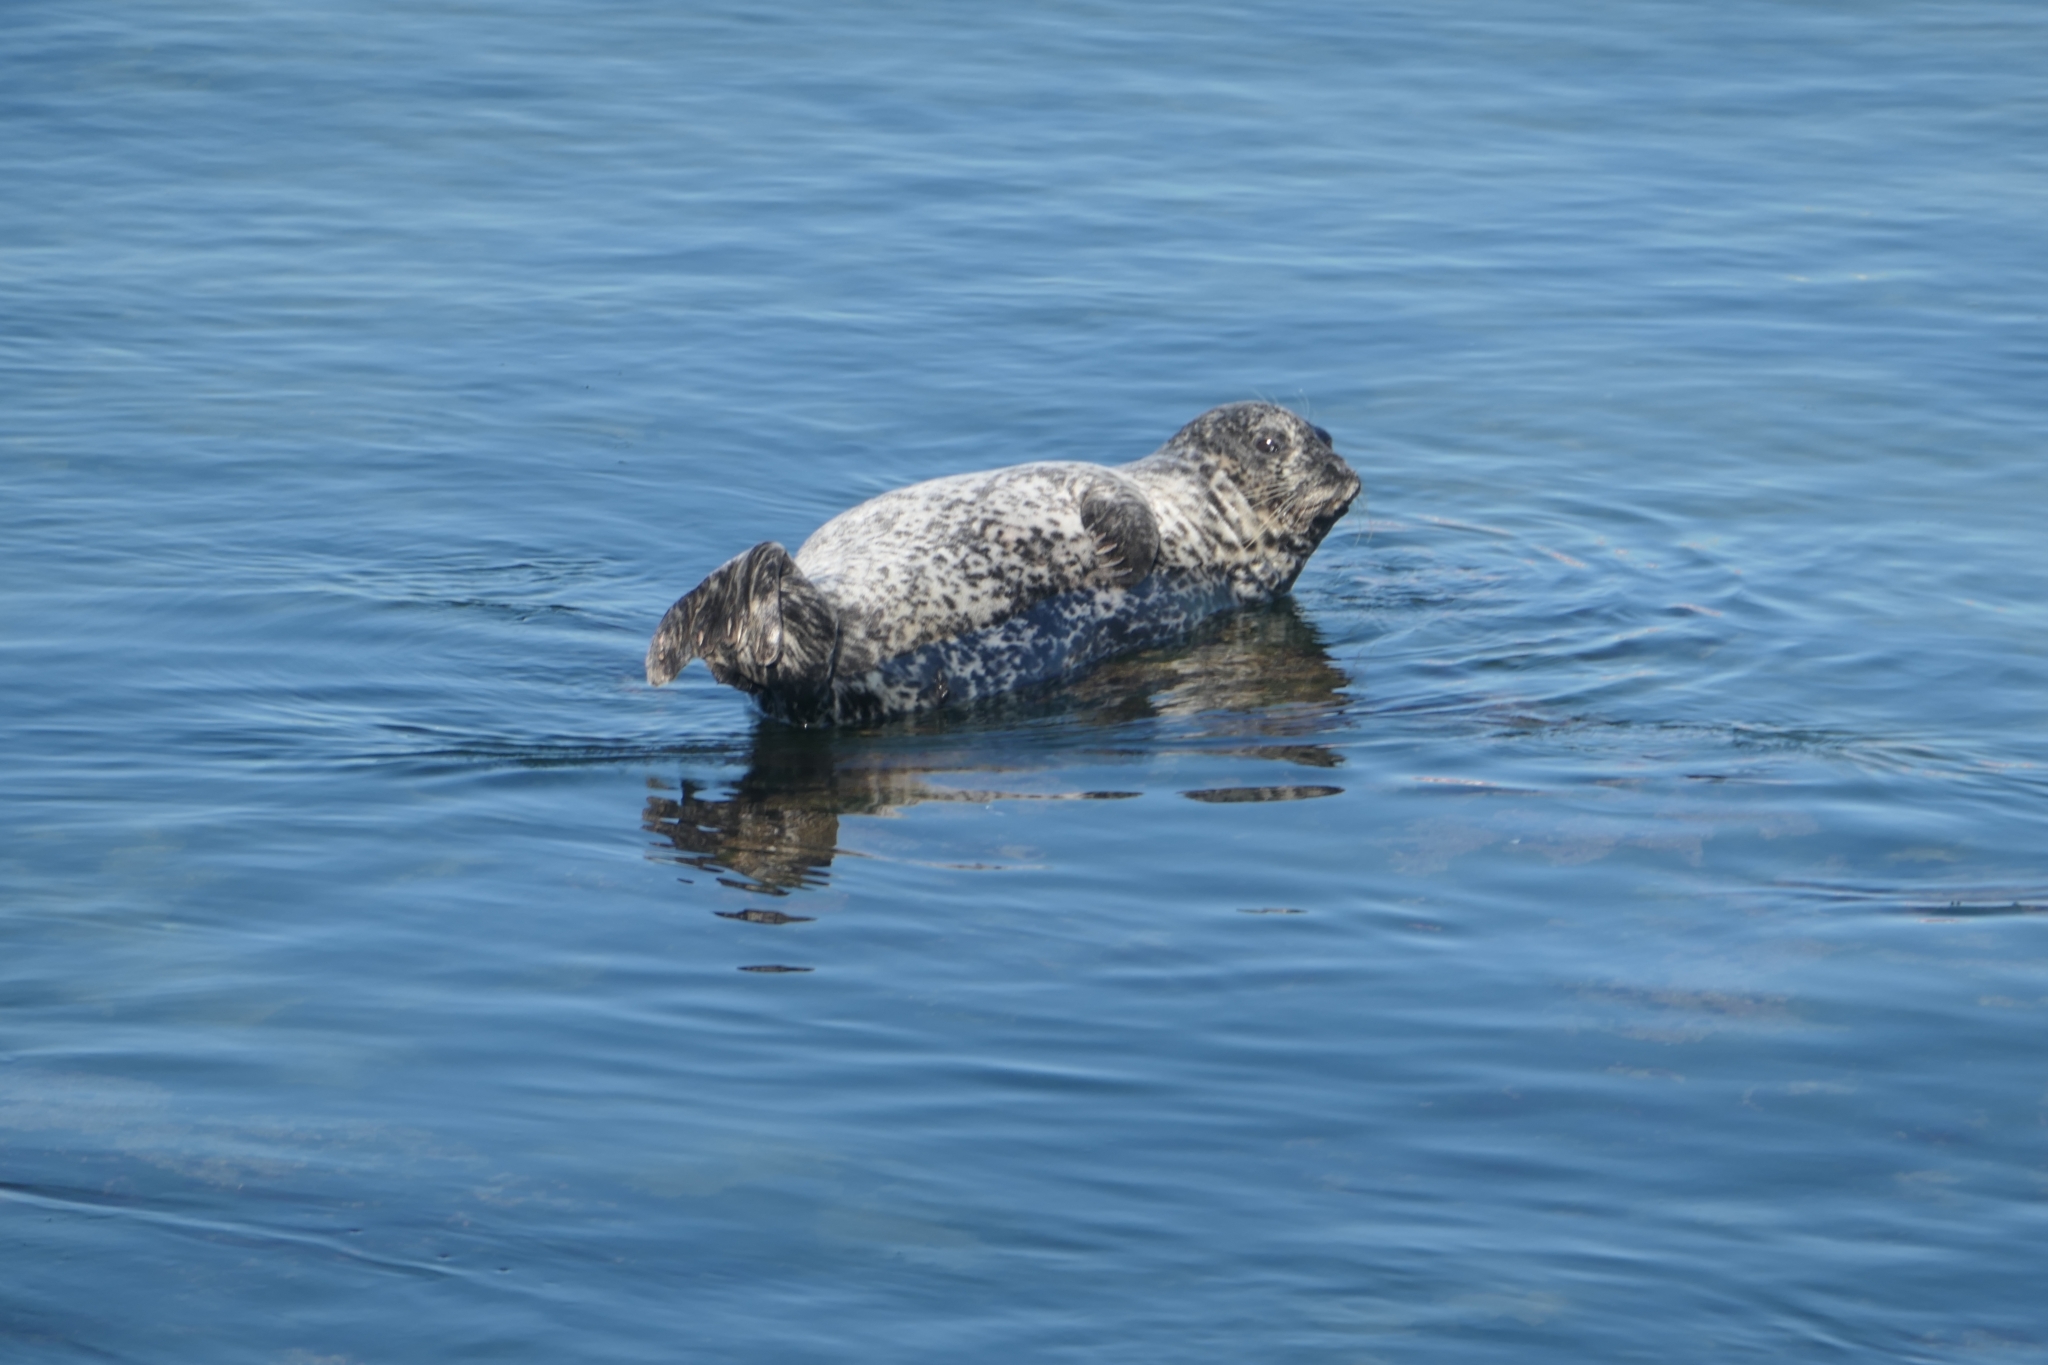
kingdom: Animalia
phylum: Chordata
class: Mammalia
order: Carnivora
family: Phocidae
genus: Phoca
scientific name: Phoca vitulina
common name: Harbor seal
